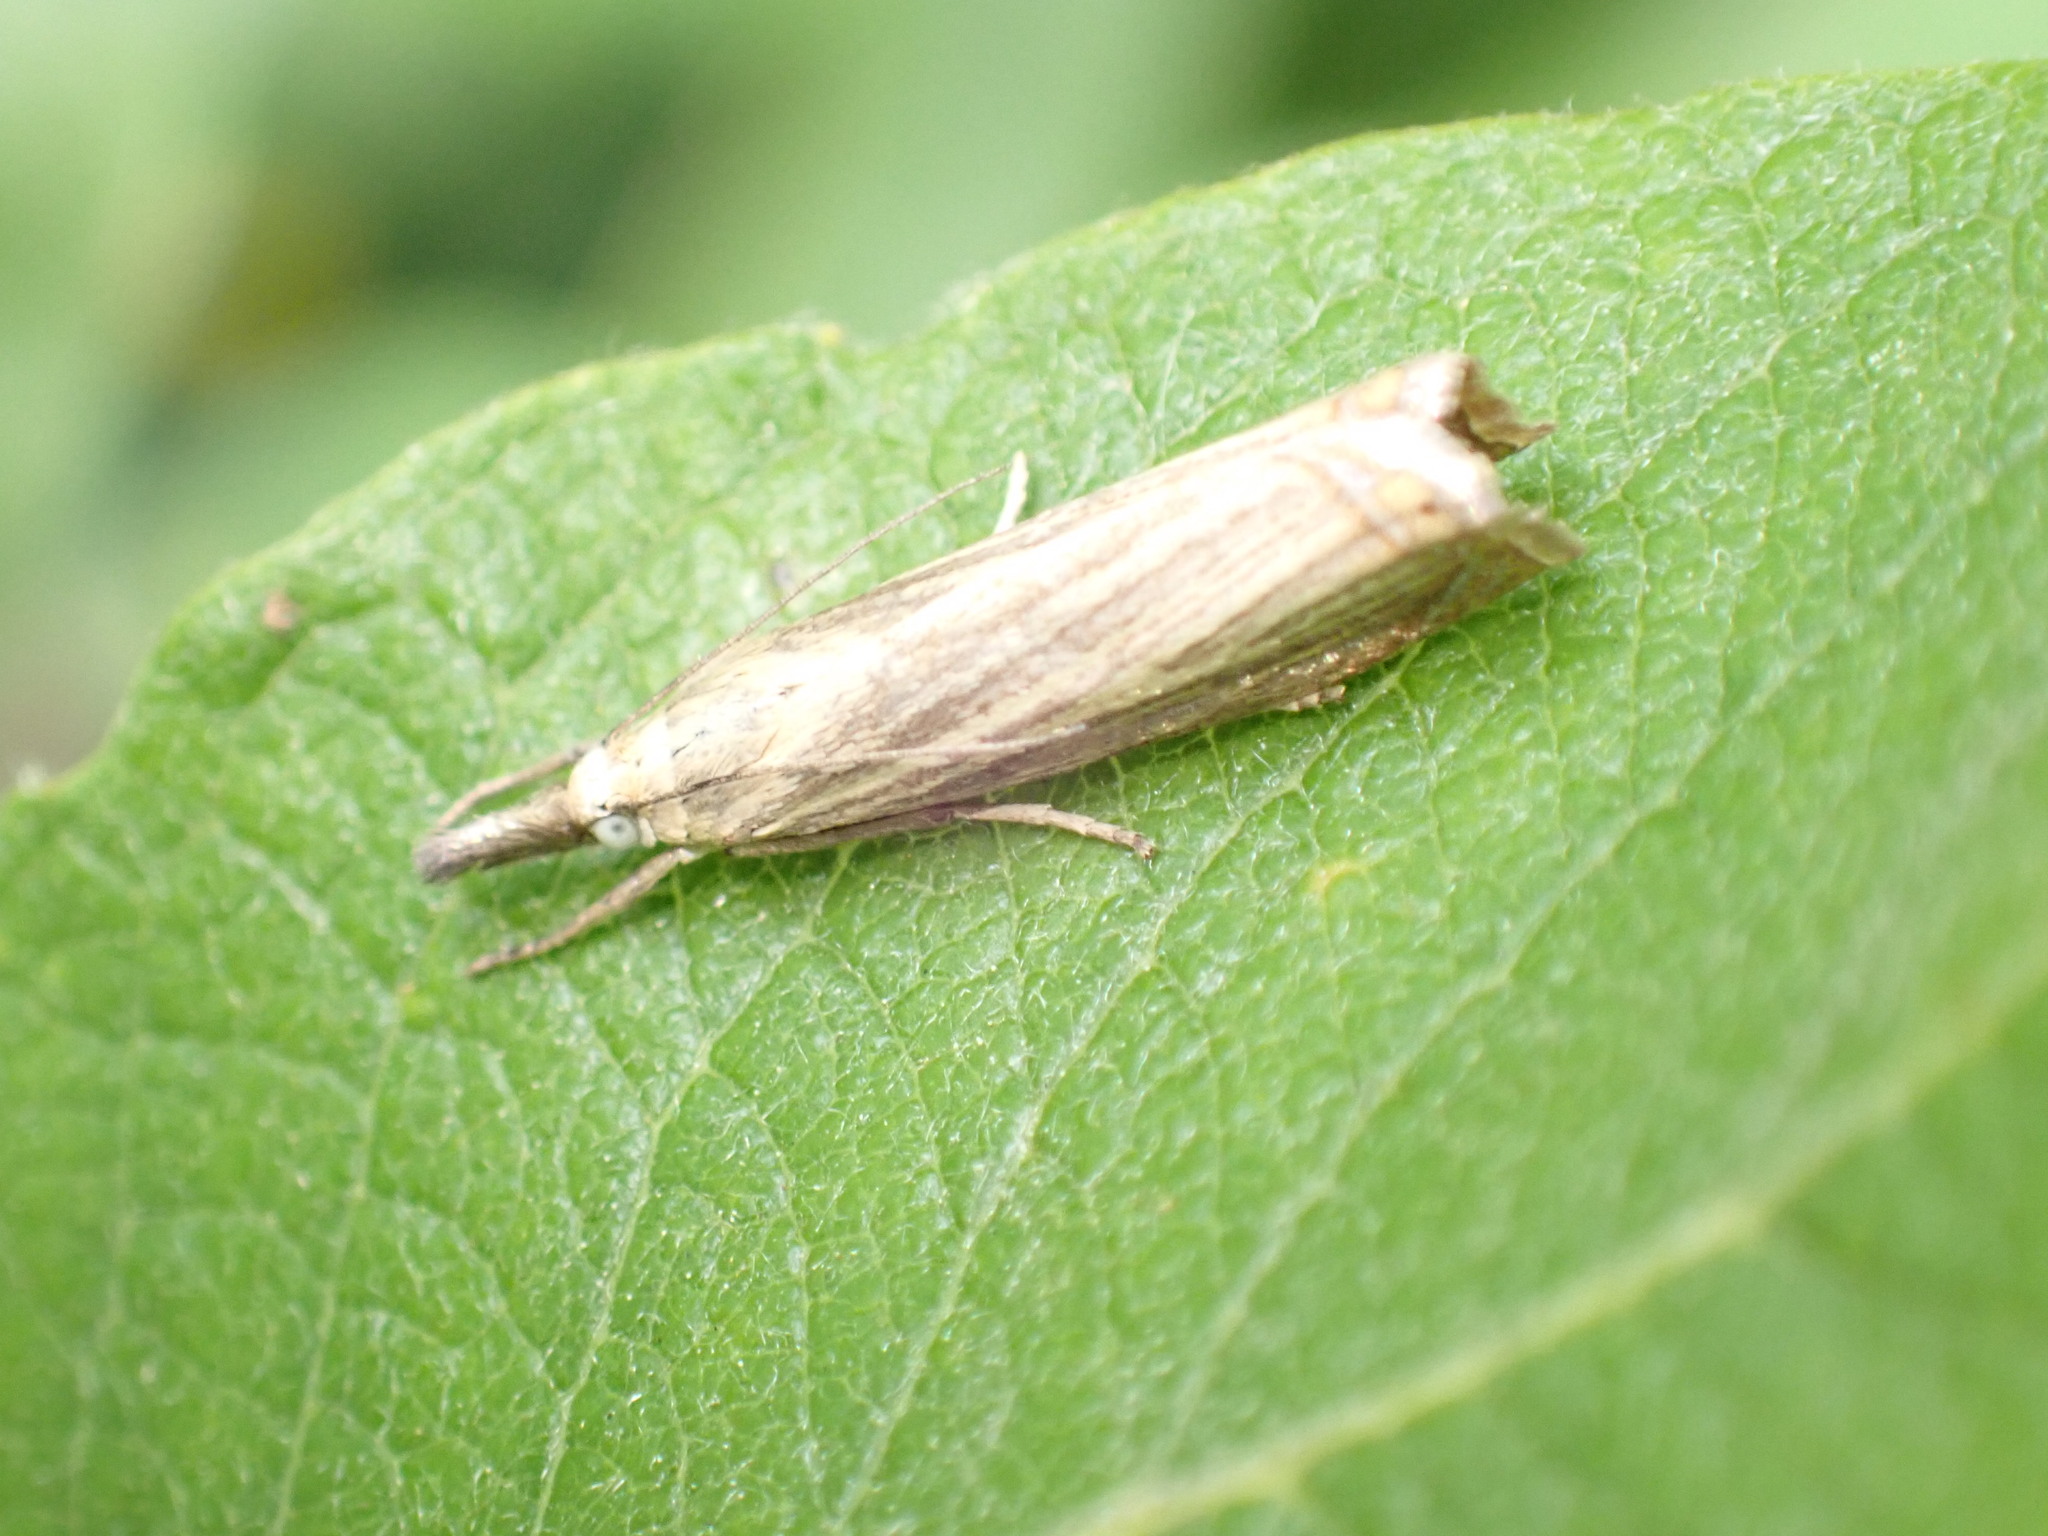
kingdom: Animalia
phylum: Arthropoda
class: Insecta
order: Lepidoptera
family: Crambidae
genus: Chrysoteuchia
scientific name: Chrysoteuchia culmella
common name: Garden grass-veneer
